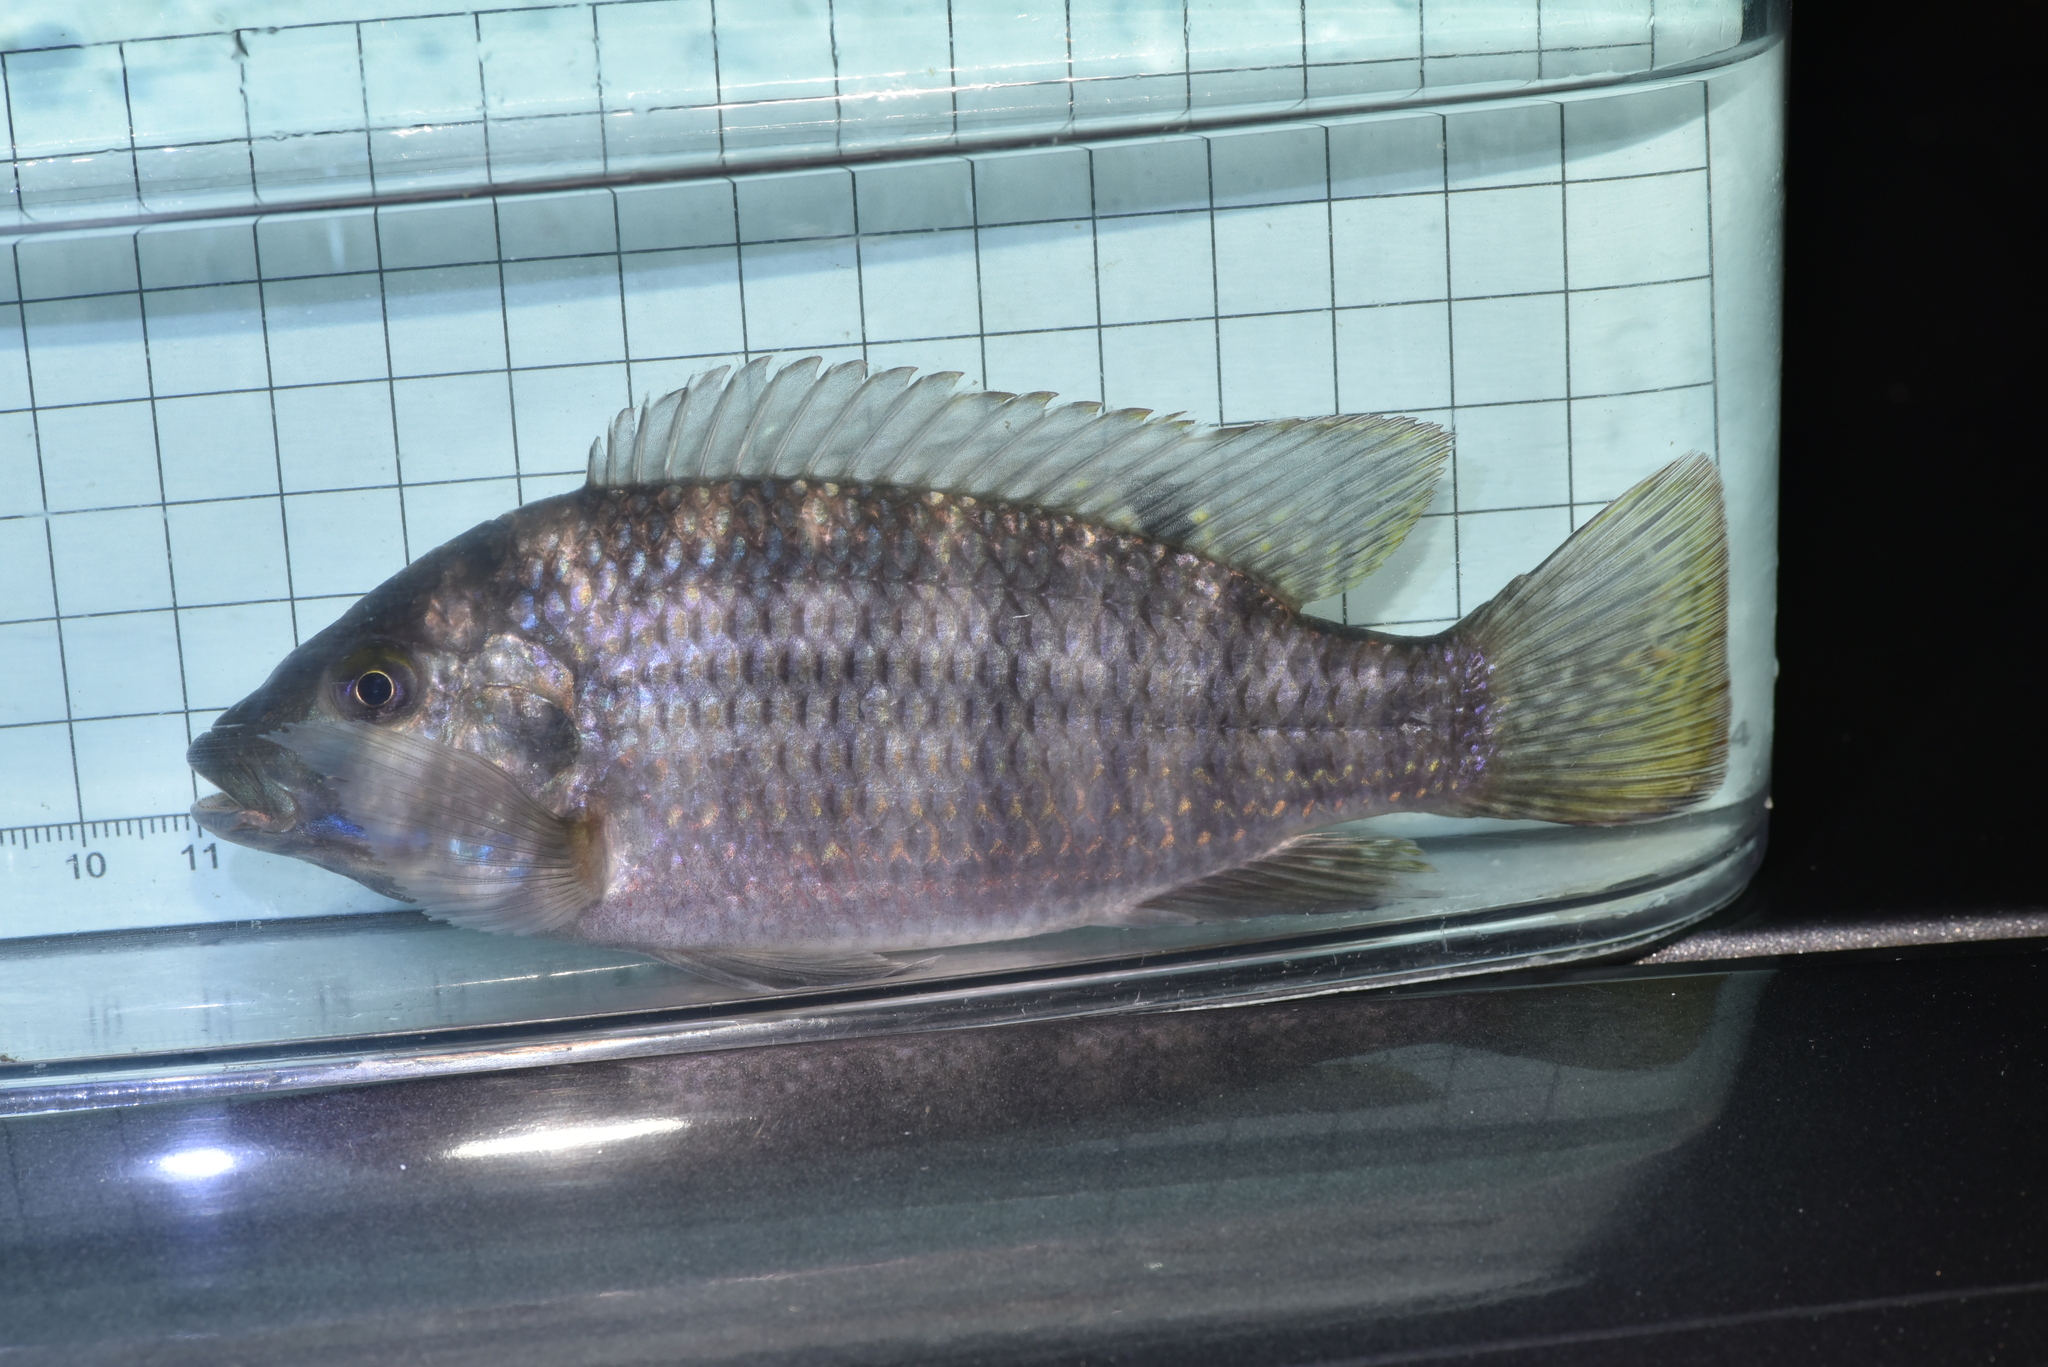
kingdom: Animalia
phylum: Chordata
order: Perciformes
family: Cichlidae
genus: Coptodon
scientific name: Coptodon zillii
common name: Redbelly tilapia
